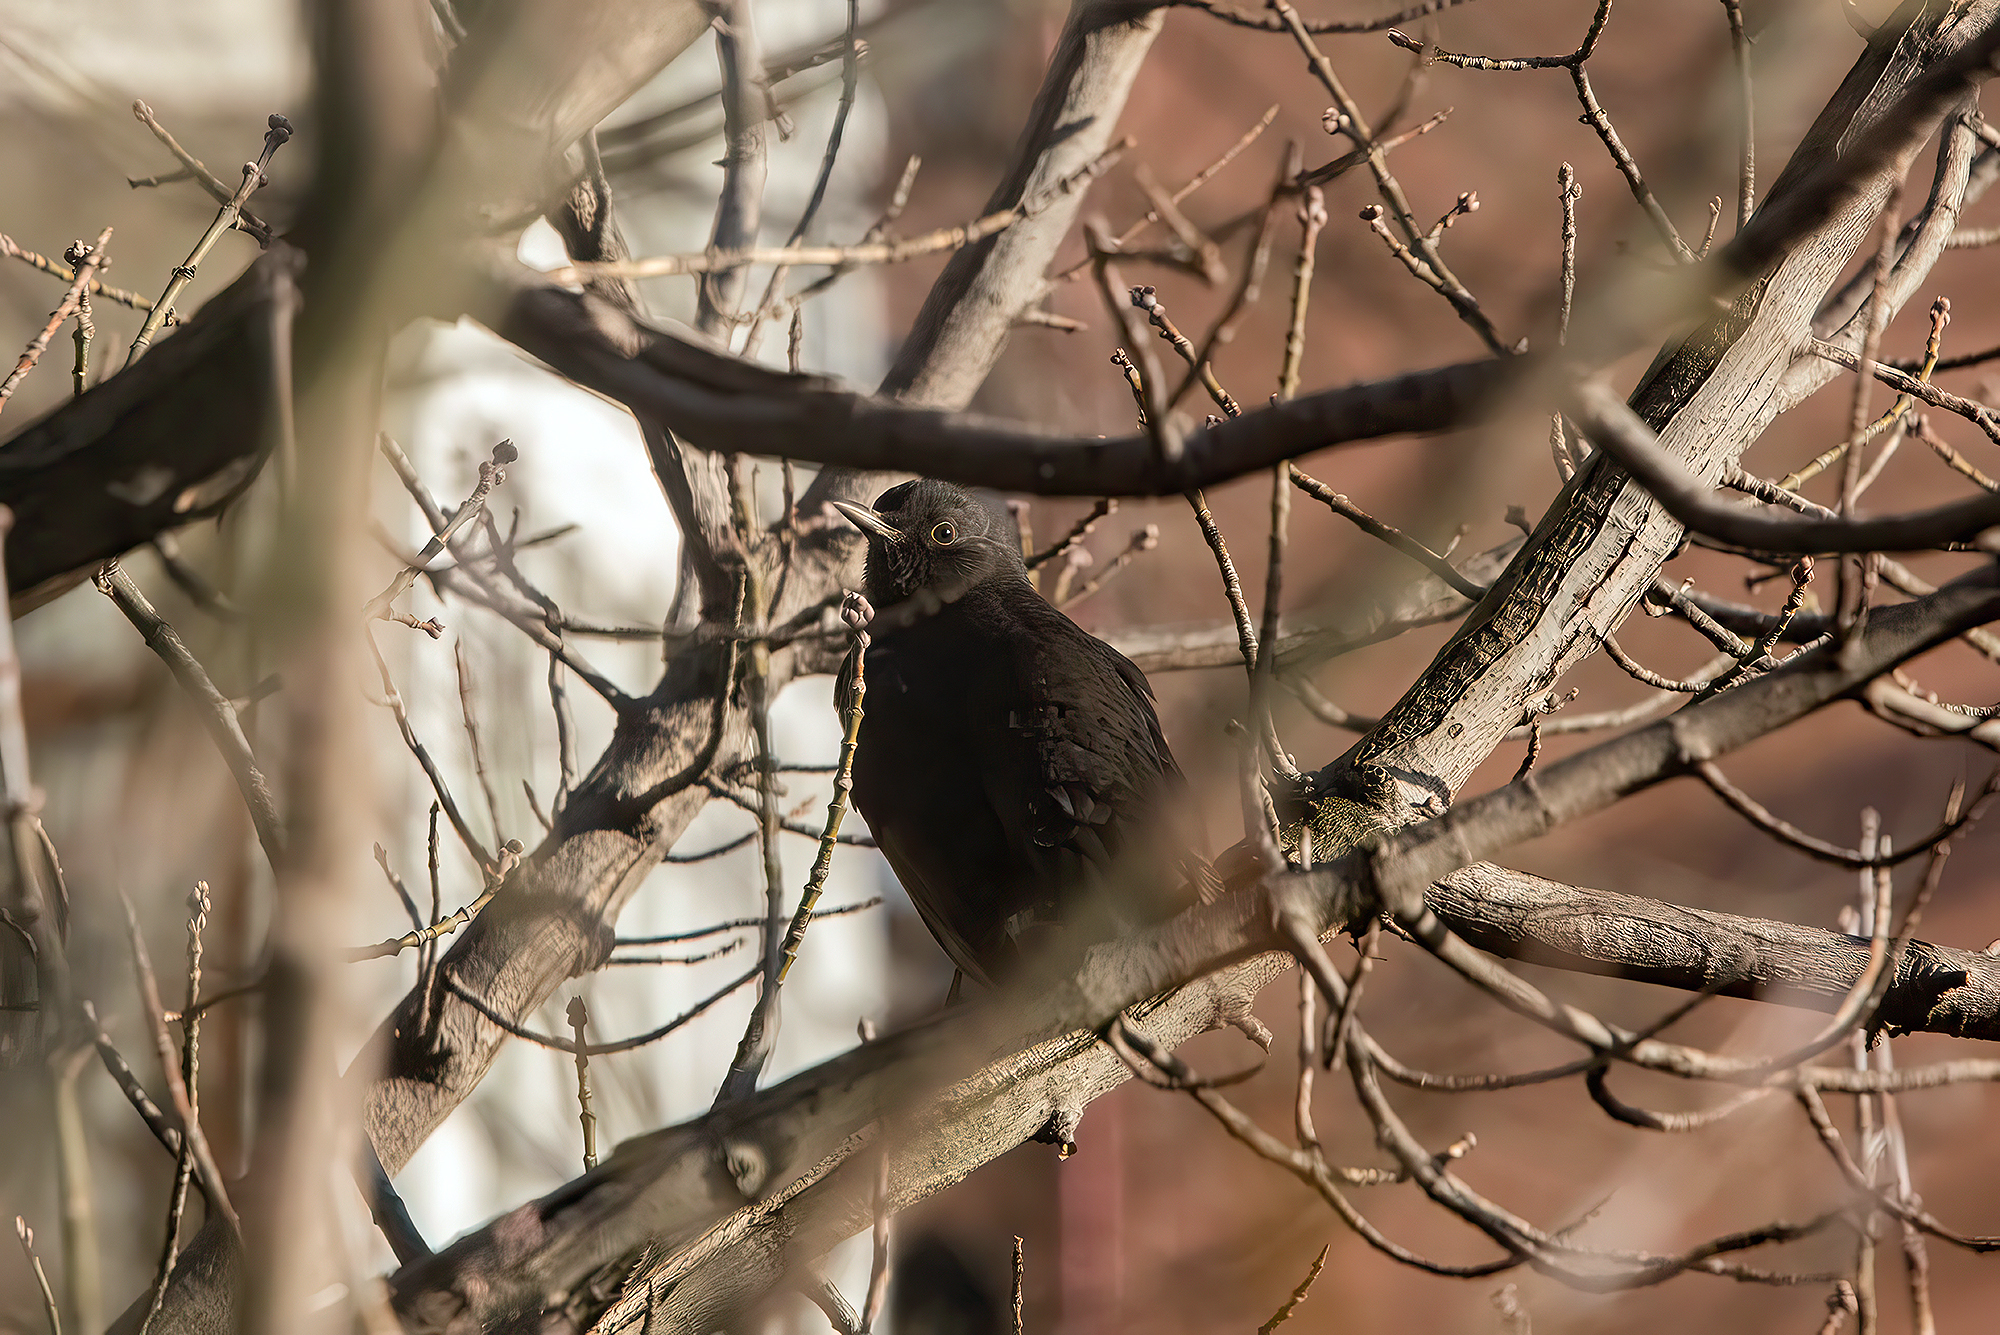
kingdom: Animalia
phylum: Chordata
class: Aves
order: Passeriformes
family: Turdidae
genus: Turdus
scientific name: Turdus merula
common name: Common blackbird
